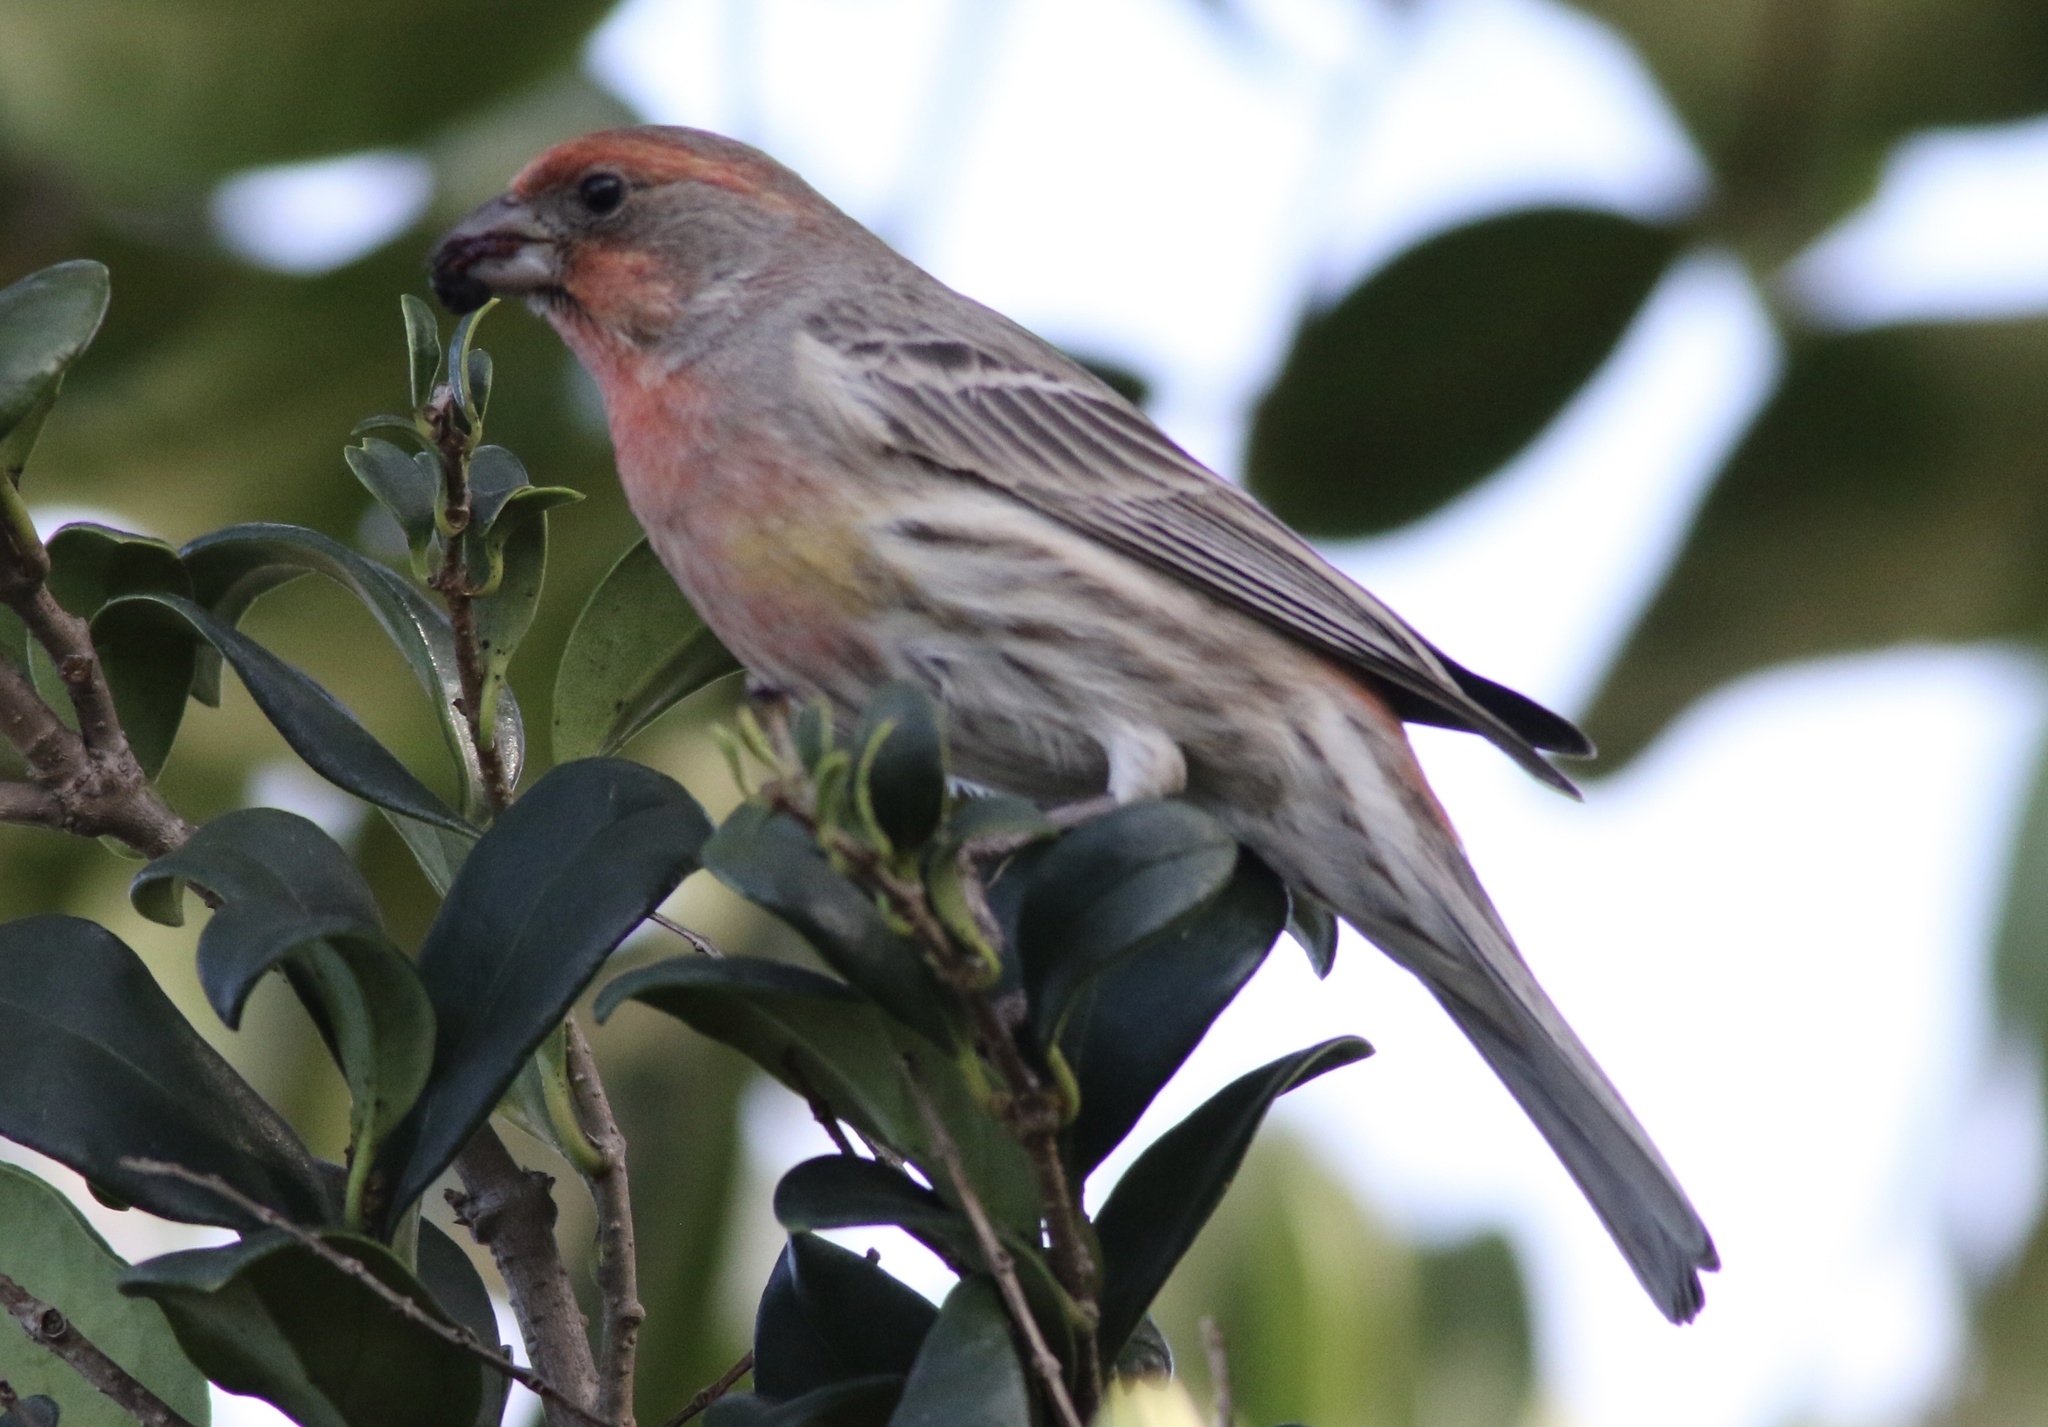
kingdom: Animalia
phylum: Chordata
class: Aves
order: Passeriformes
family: Fringillidae
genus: Haemorhous
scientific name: Haemorhous mexicanus
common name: House finch
